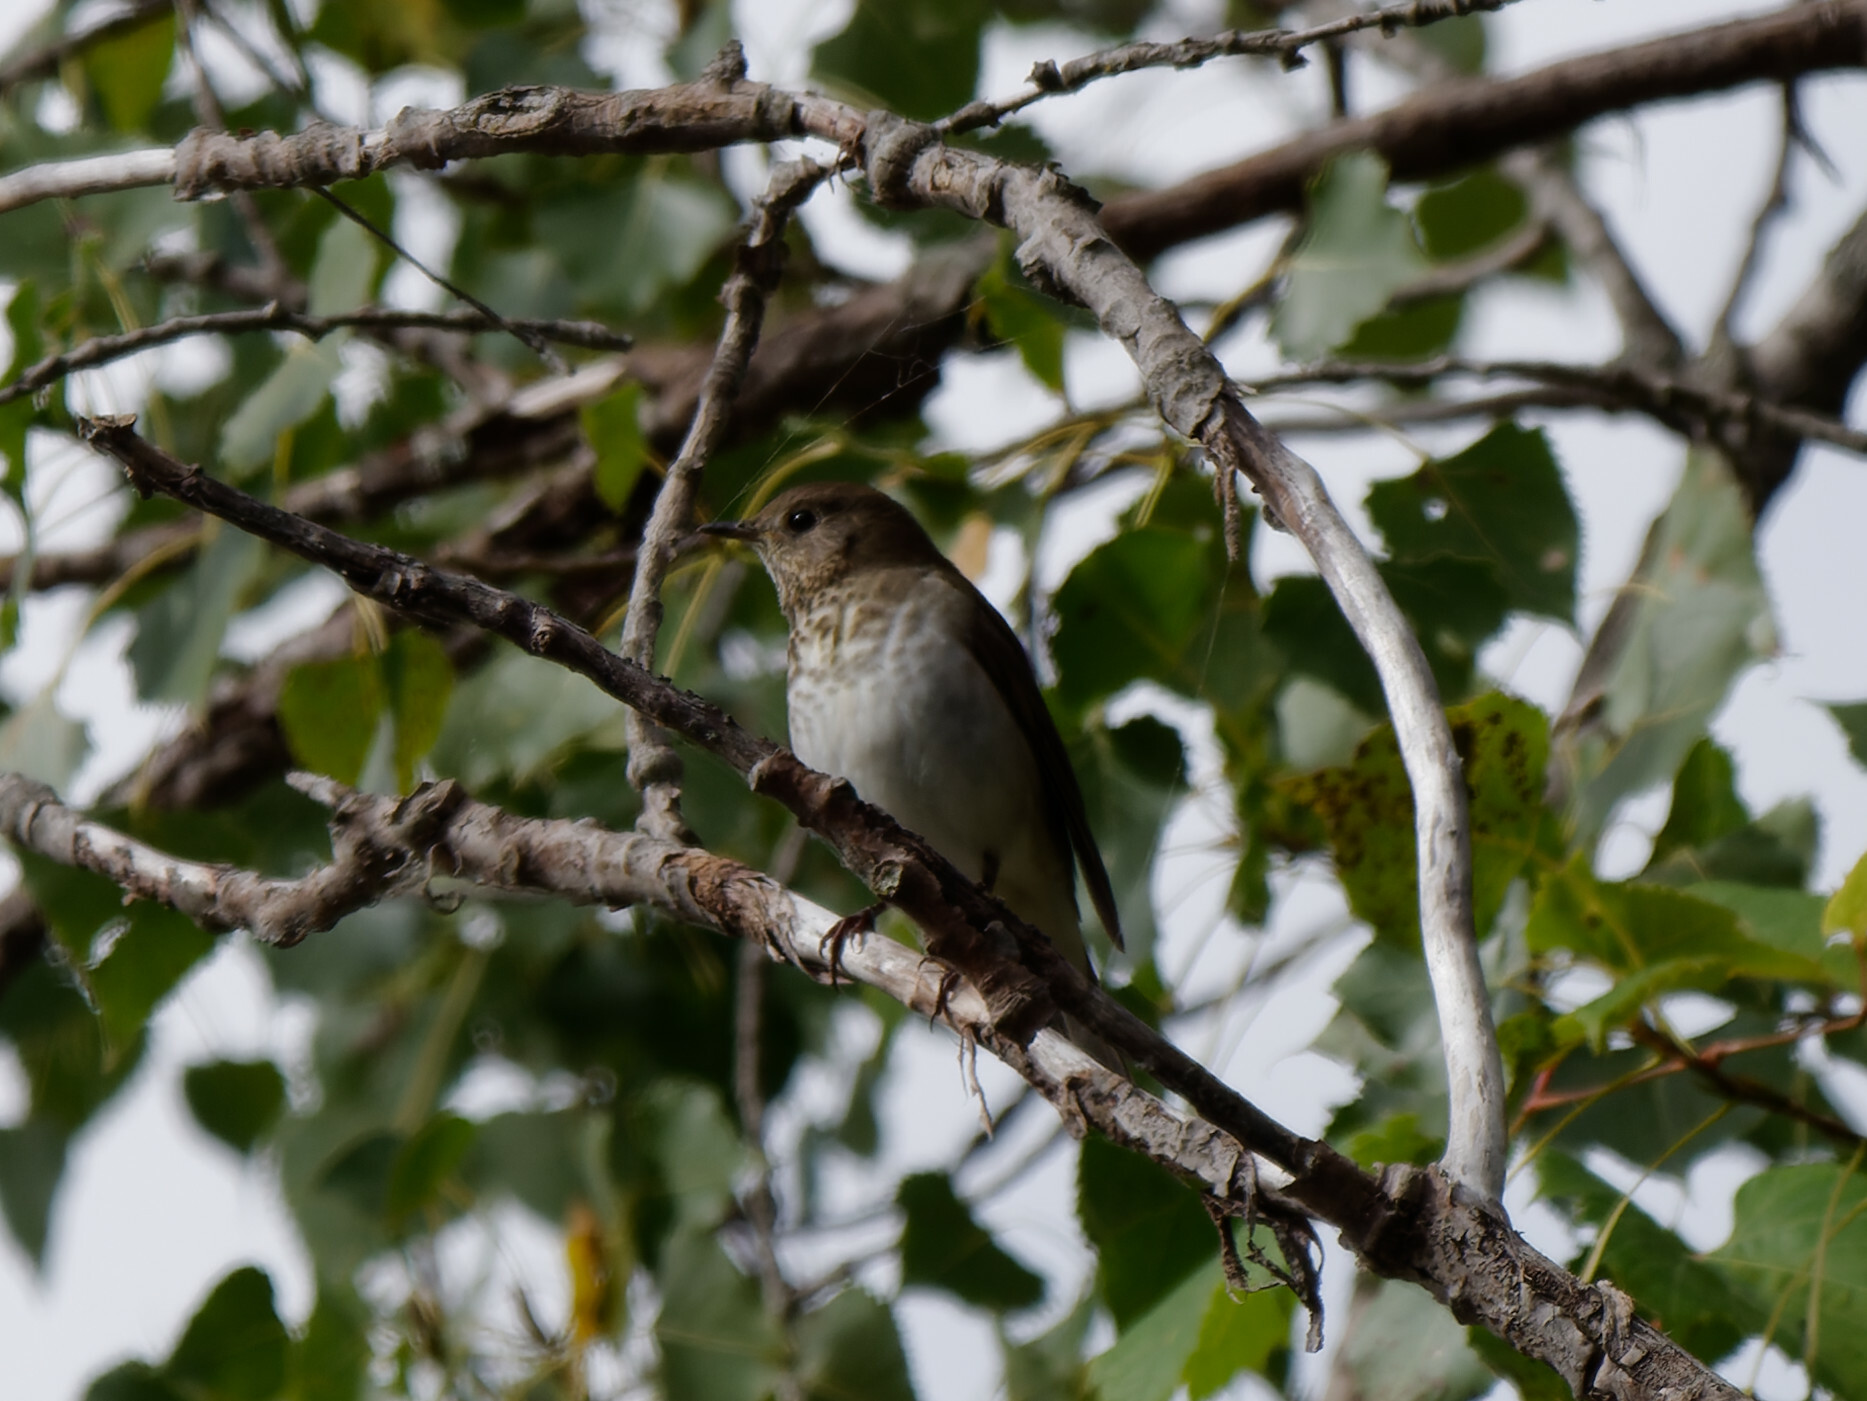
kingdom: Animalia
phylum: Chordata
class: Aves
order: Passeriformes
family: Turdidae
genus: Catharus
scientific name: Catharus minimus
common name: Grey-cheeked thrush
